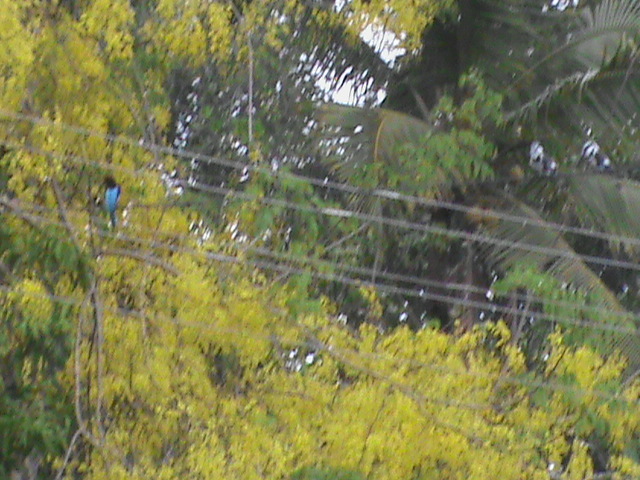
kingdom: Plantae
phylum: Tracheophyta
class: Magnoliopsida
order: Fabales
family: Fabaceae
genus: Cassia
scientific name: Cassia fistula
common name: Golden shower
